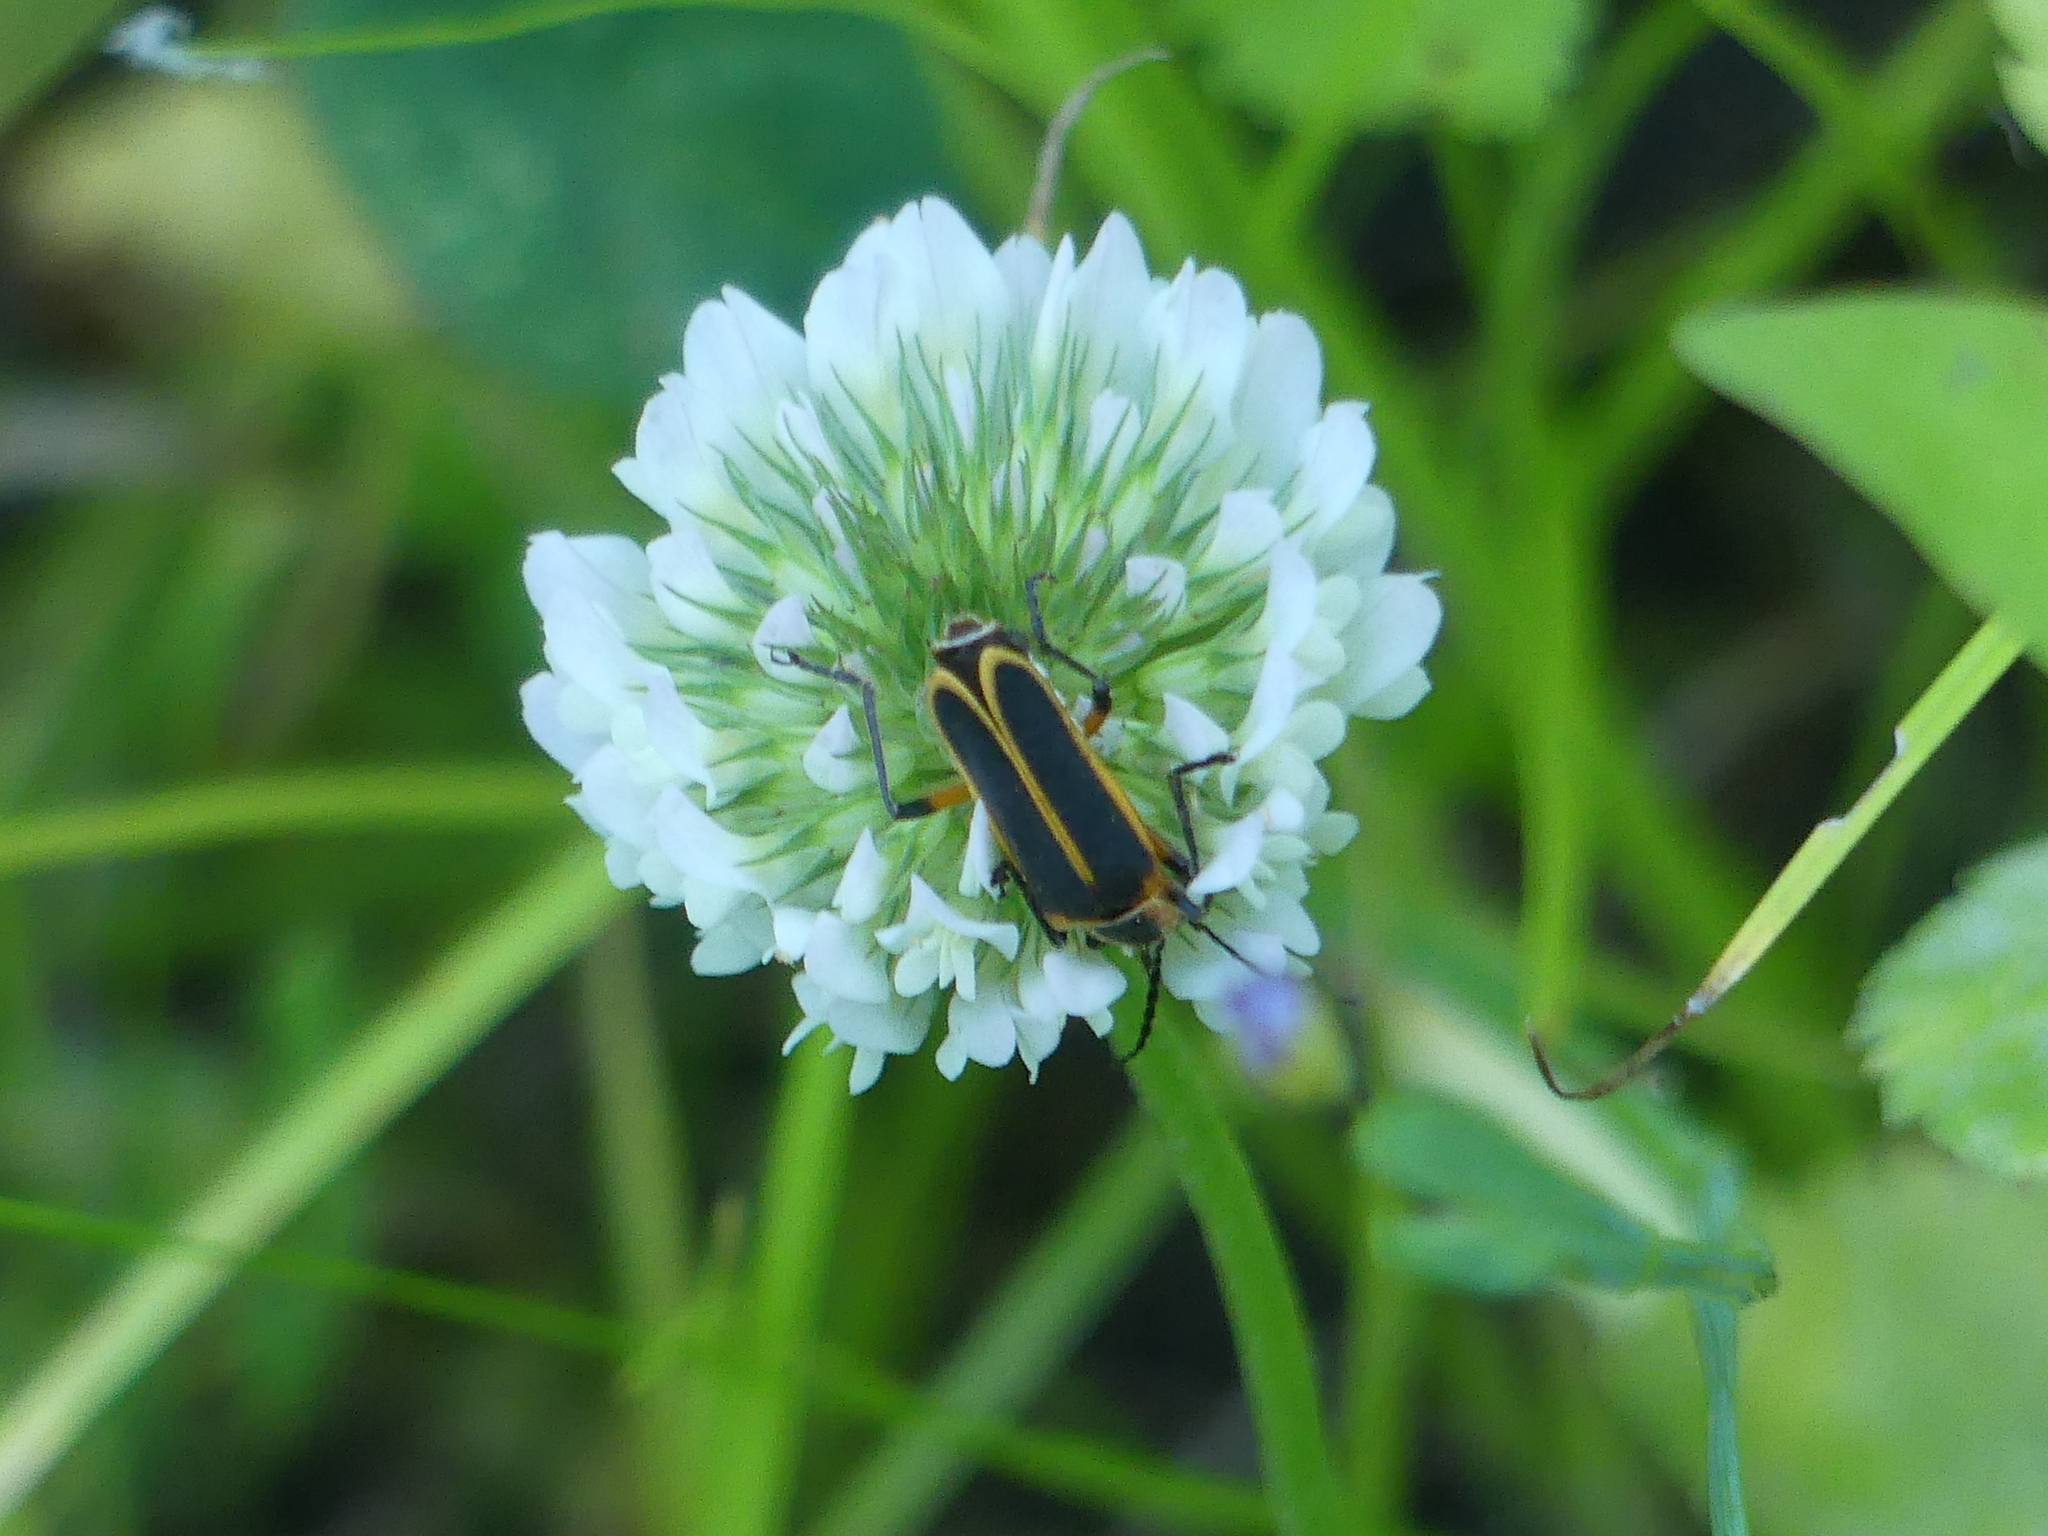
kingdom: Animalia
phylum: Arthropoda
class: Insecta
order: Coleoptera
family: Cantharidae
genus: Chauliognathus
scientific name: Chauliognathus marginatus
